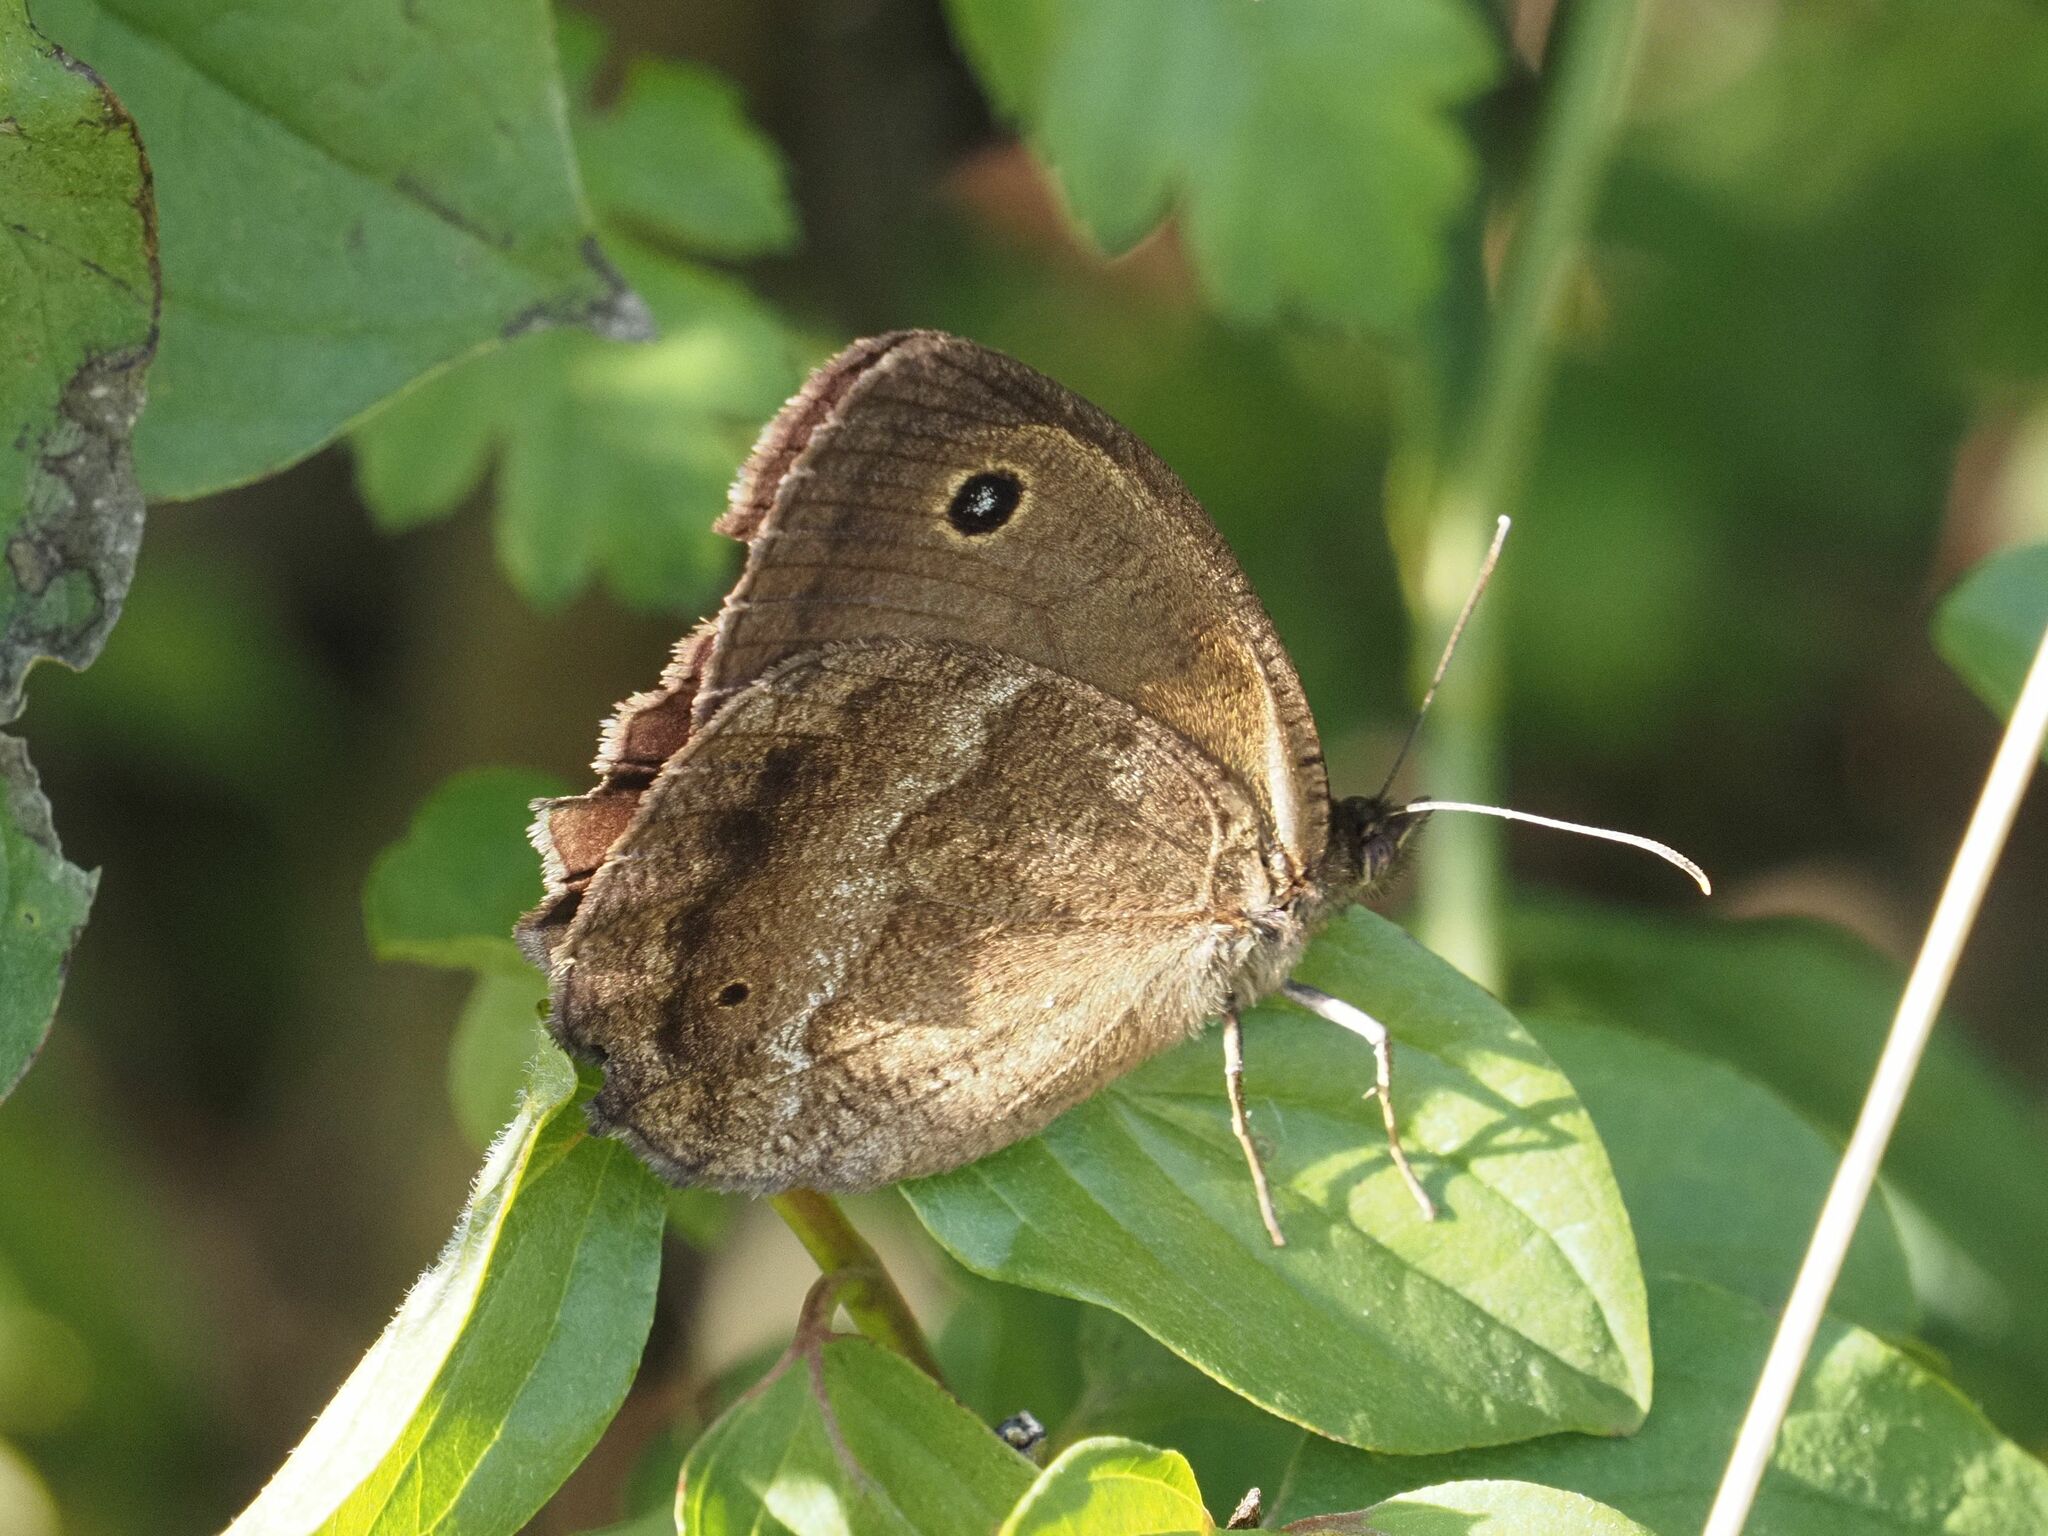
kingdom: Animalia
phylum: Arthropoda
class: Insecta
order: Lepidoptera
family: Nymphalidae
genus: Minois
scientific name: Minois dryas
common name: Dryad
